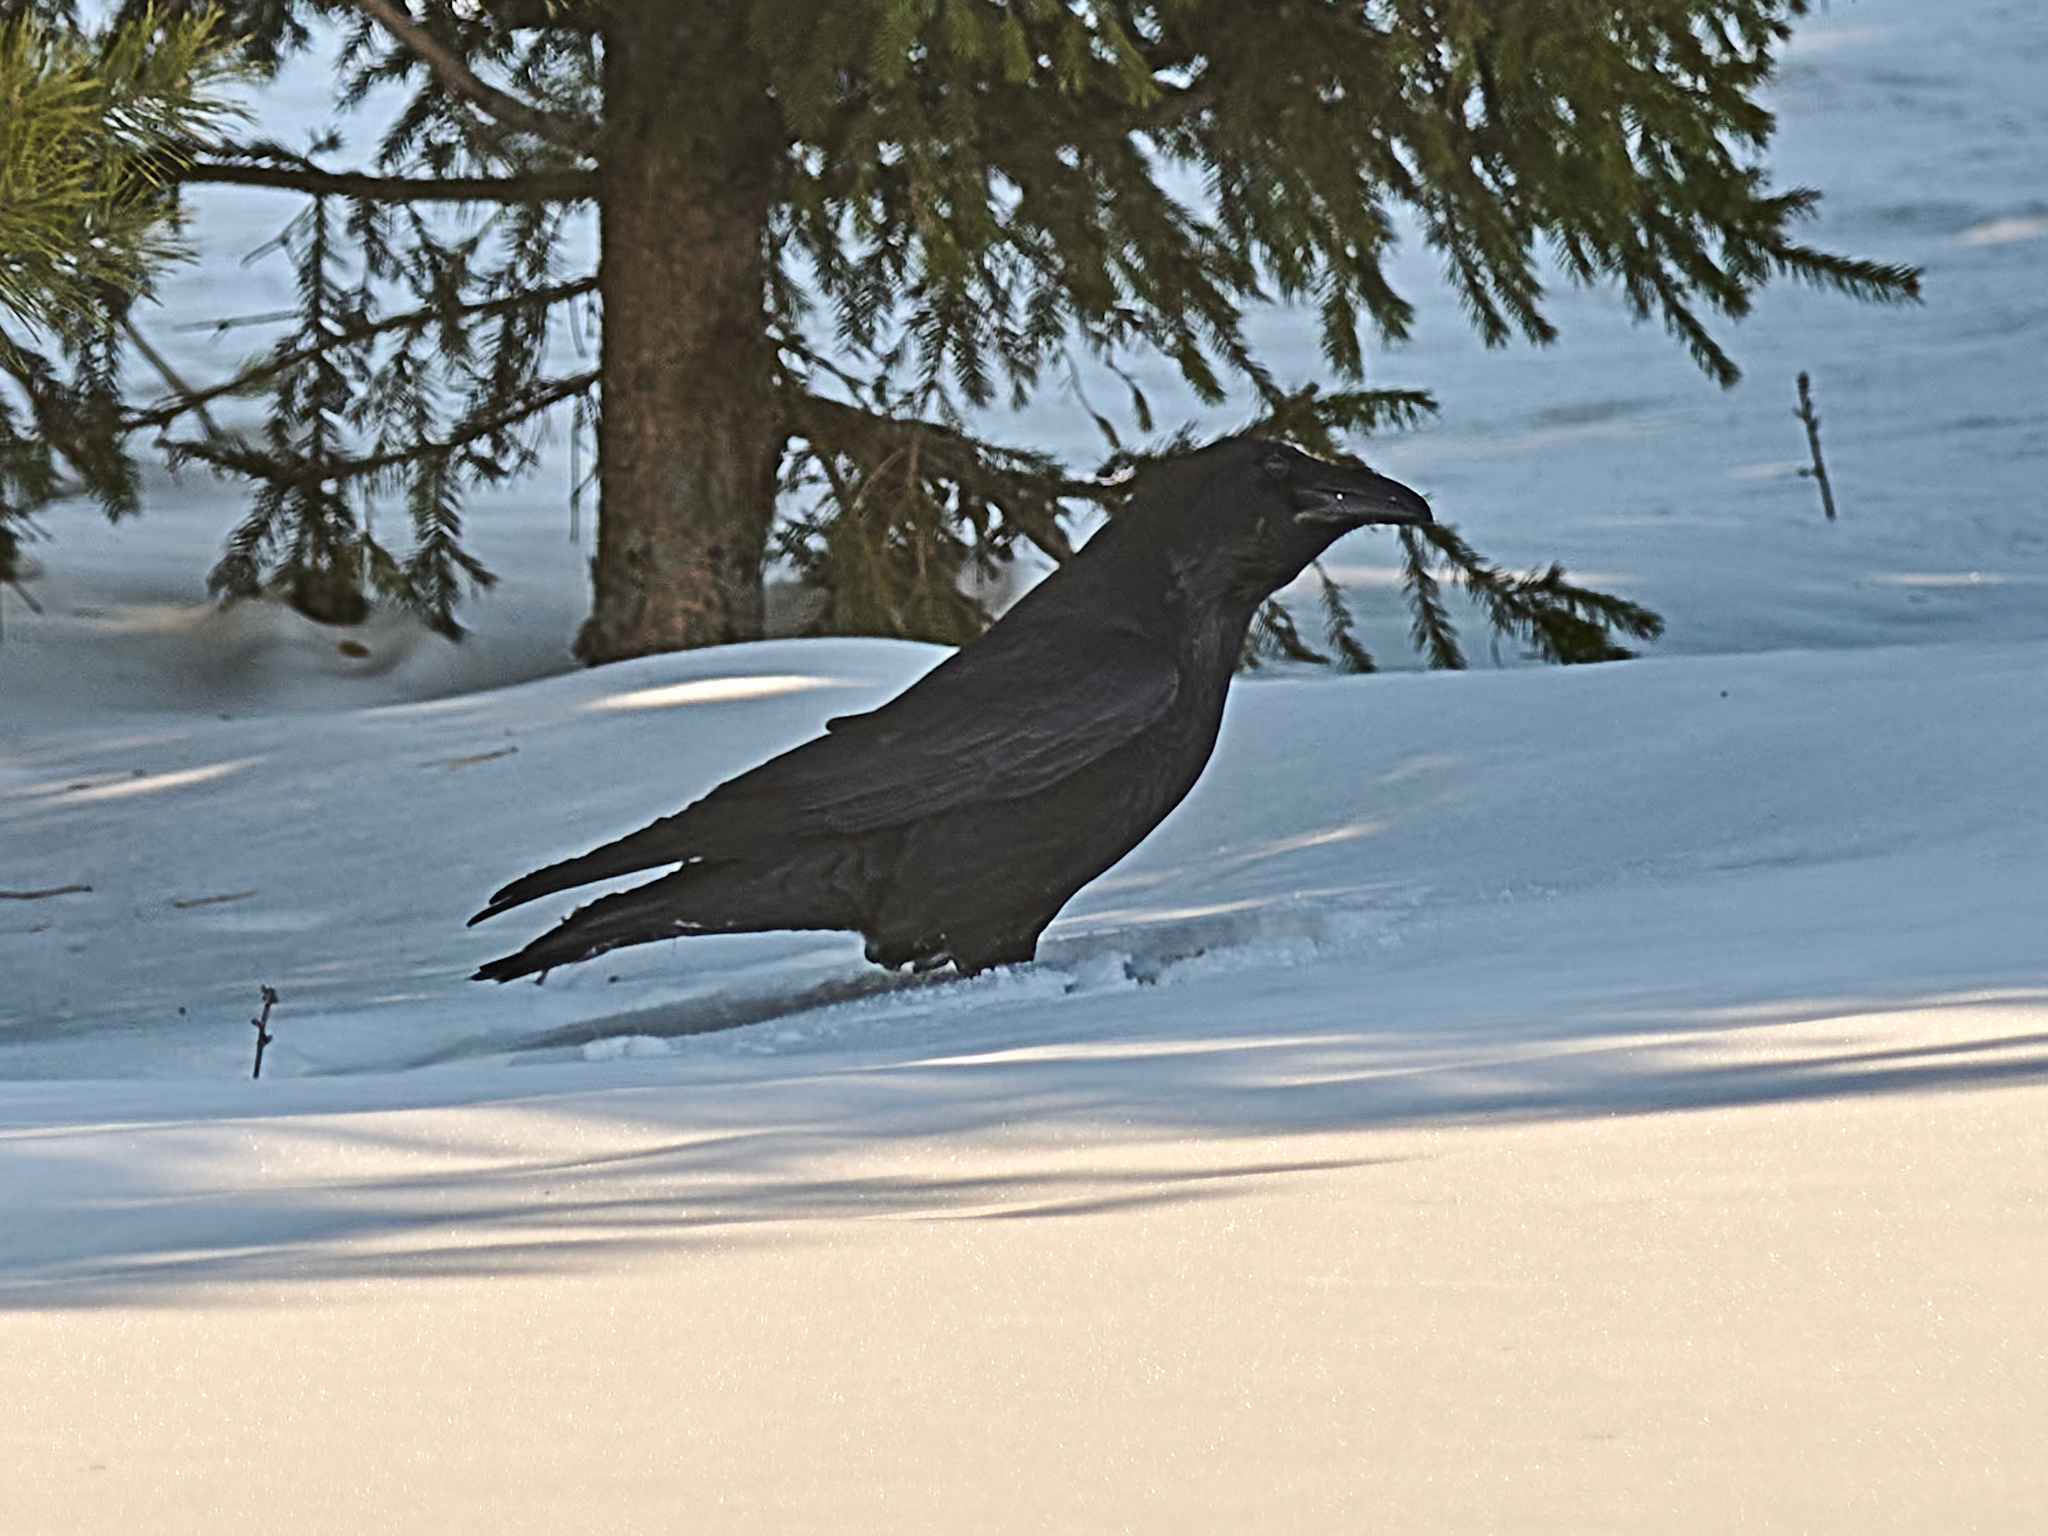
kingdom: Animalia
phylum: Chordata
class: Aves
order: Passeriformes
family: Corvidae
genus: Corvus
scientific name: Corvus corax
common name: Common raven
